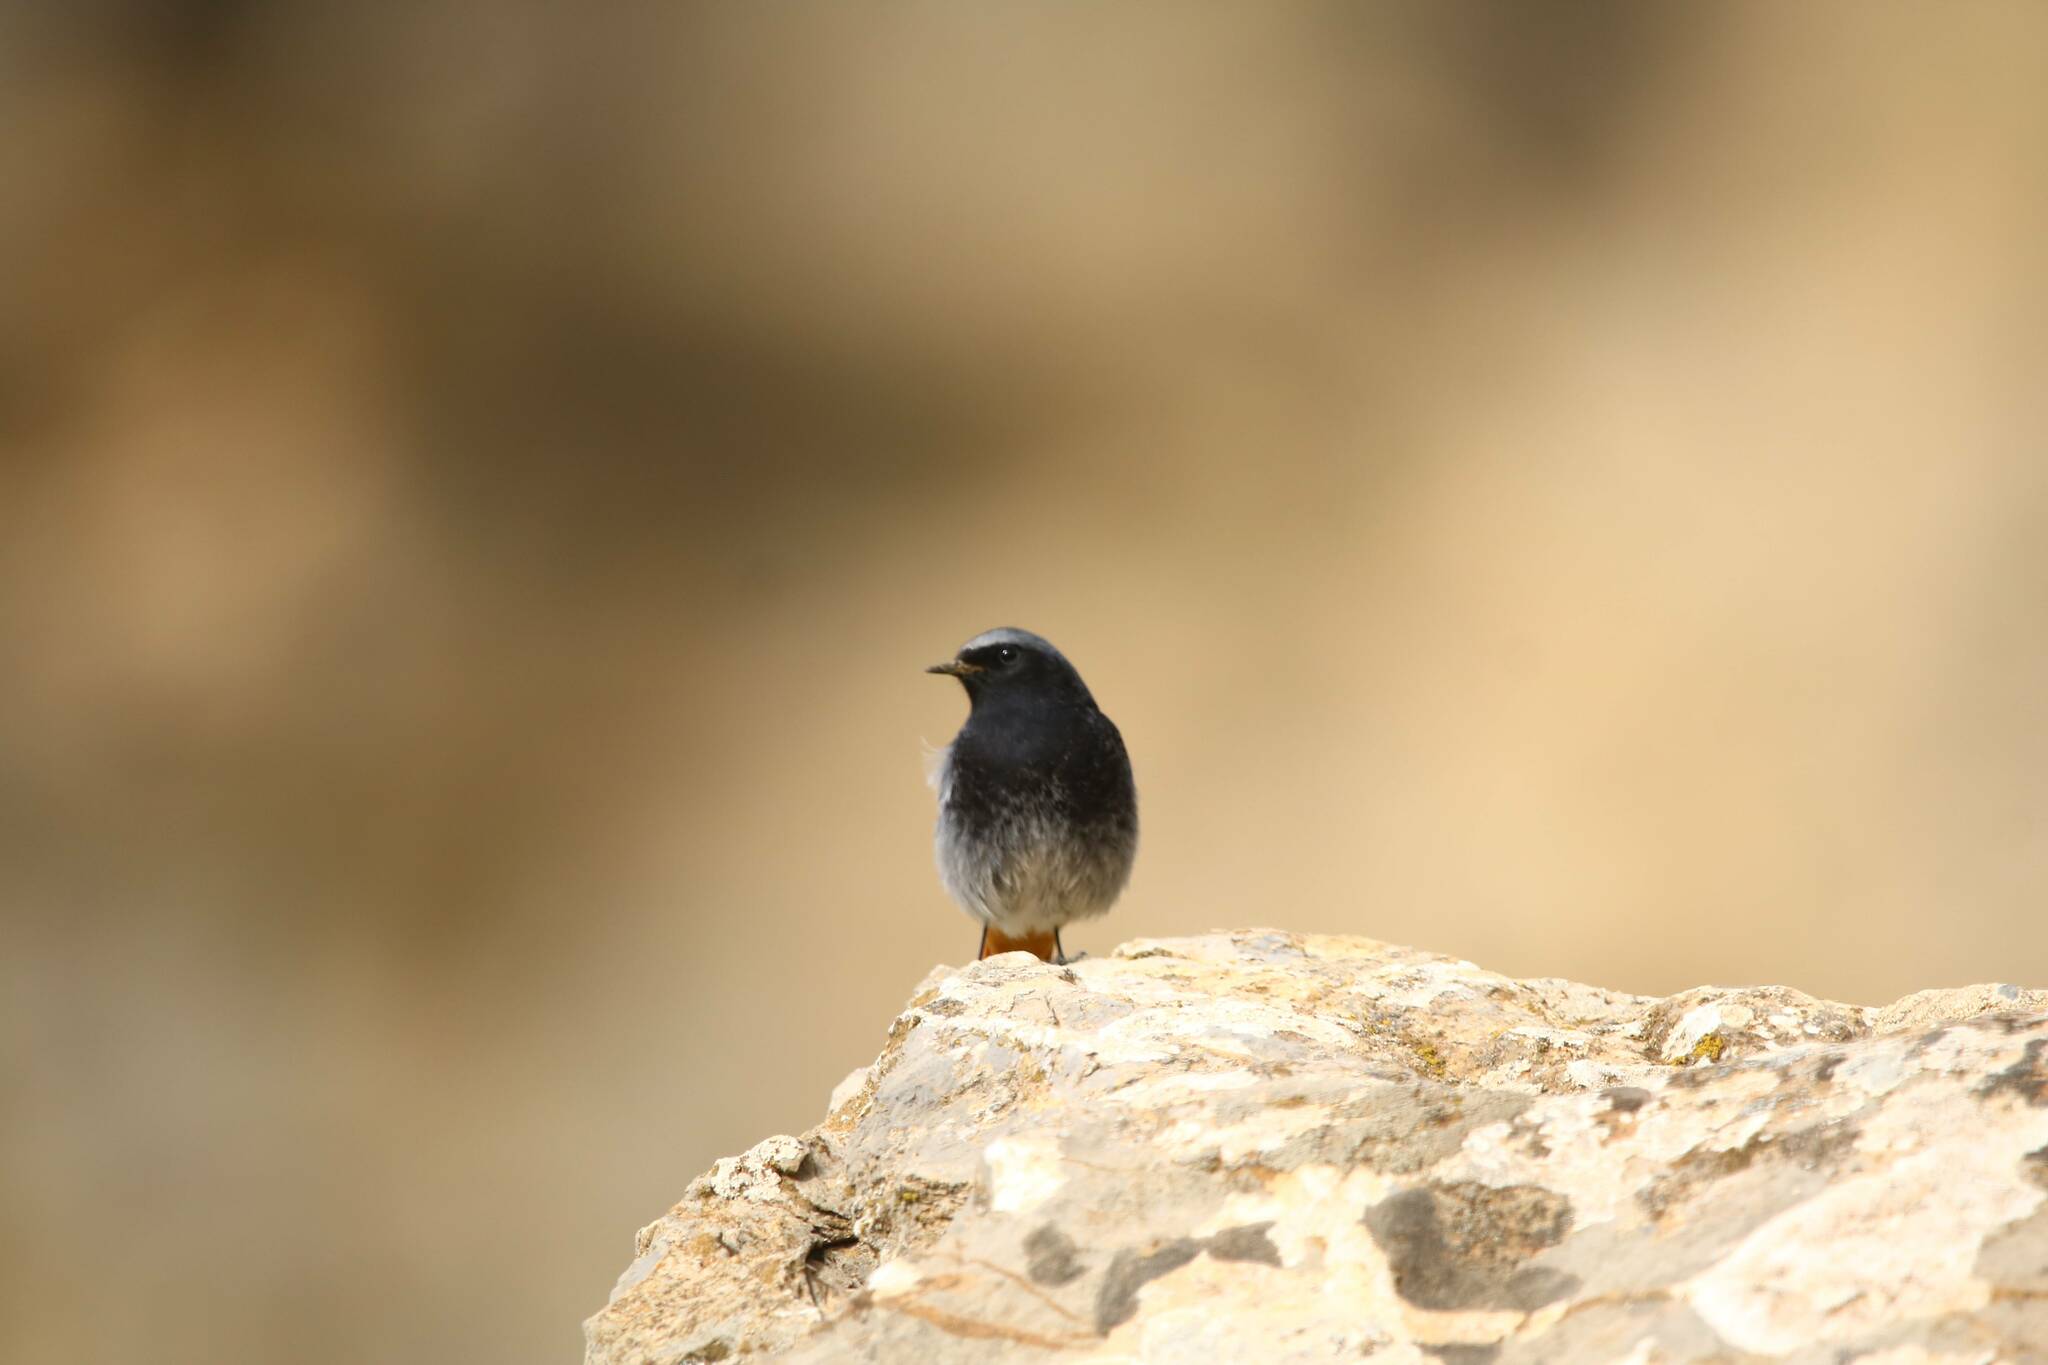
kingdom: Animalia
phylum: Chordata
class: Aves
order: Passeriformes
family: Muscicapidae
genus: Phoenicurus
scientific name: Phoenicurus ochruros
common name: Black redstart
